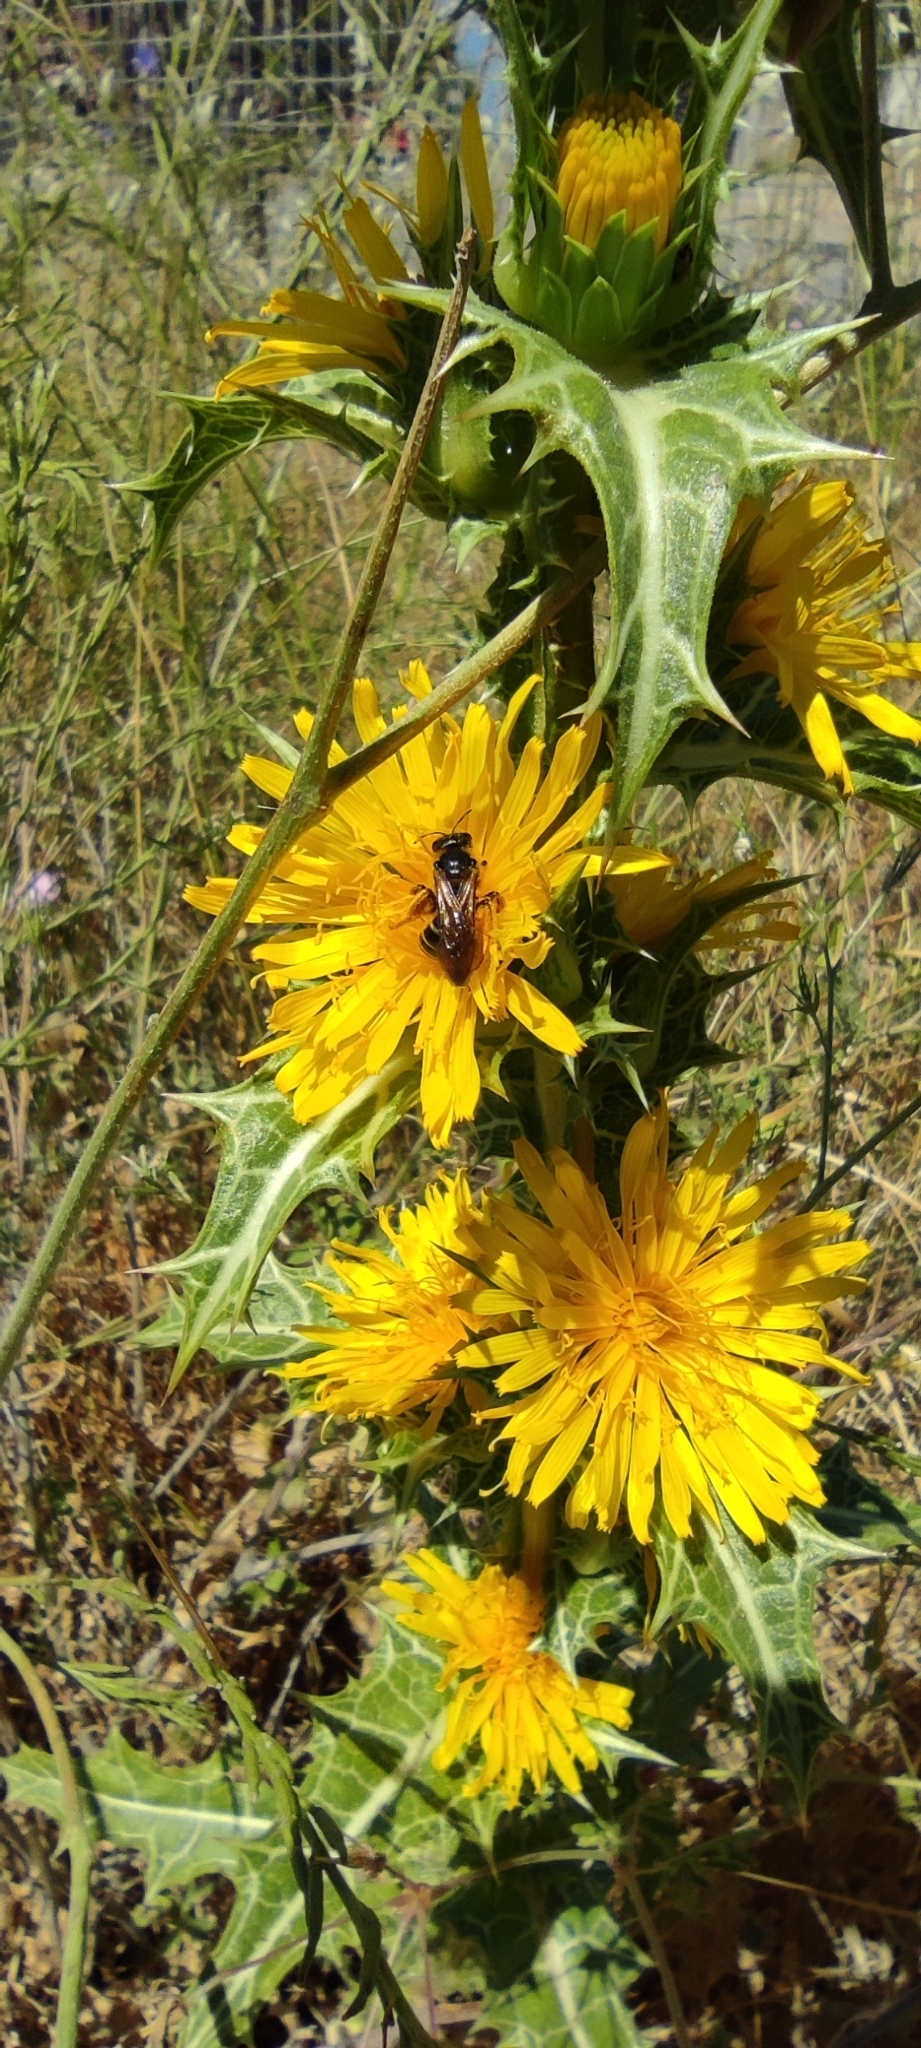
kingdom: Plantae
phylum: Tracheophyta
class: Magnoliopsida
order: Asterales
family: Asteraceae
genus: Scolymus
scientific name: Scolymus hispanicus
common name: Golden thistle
